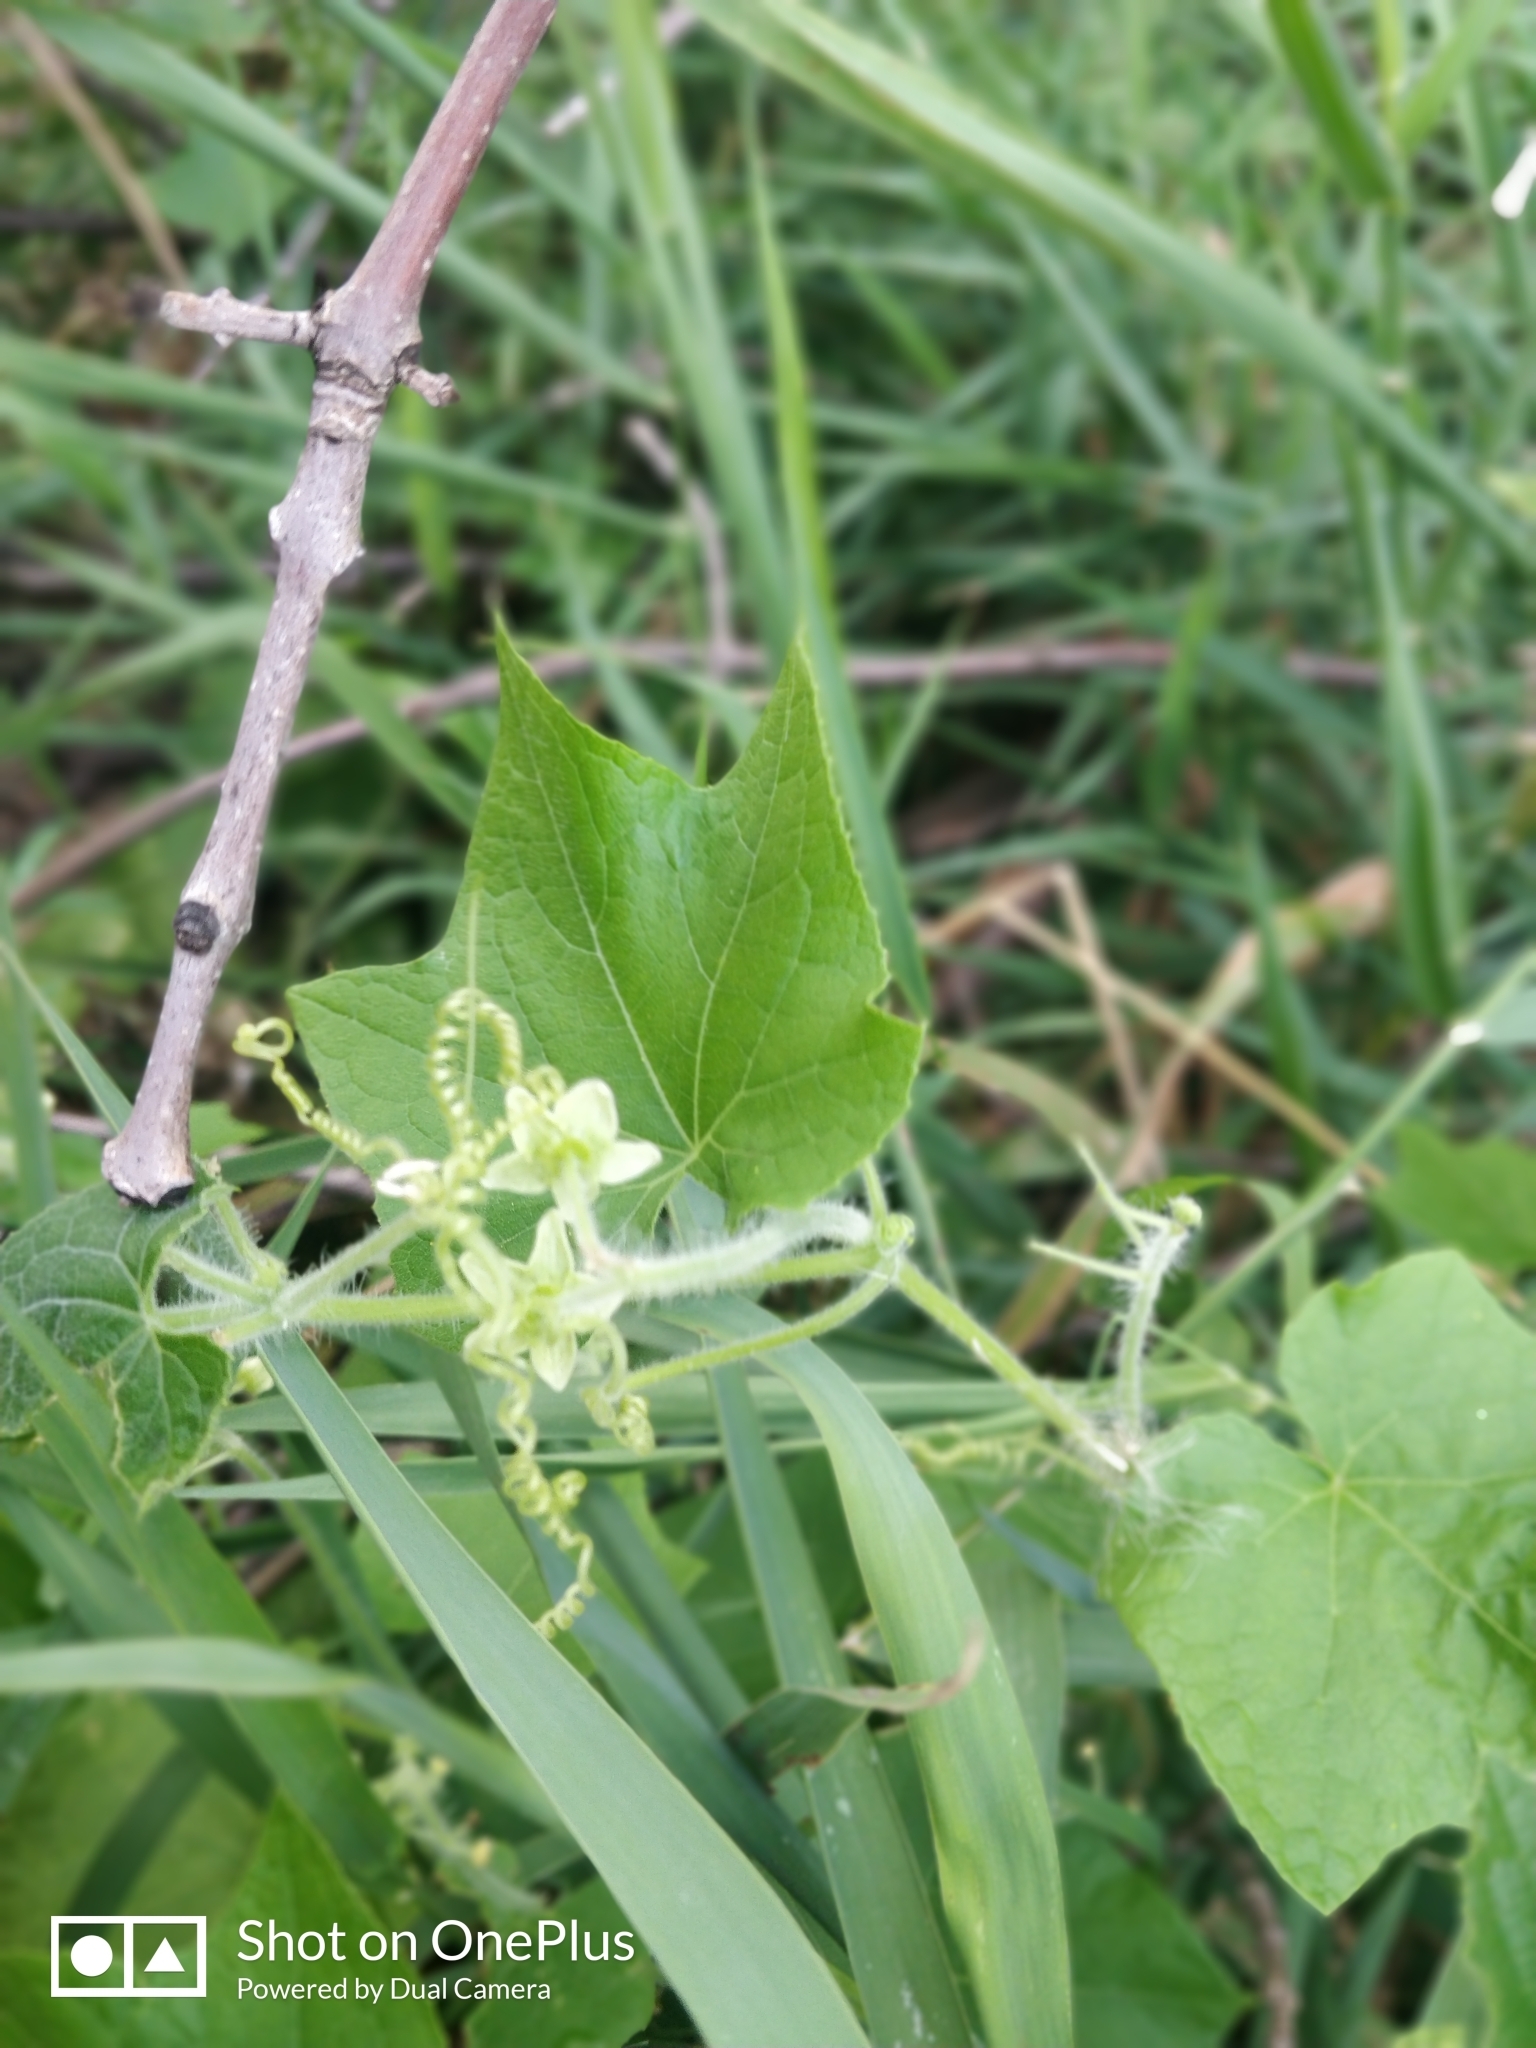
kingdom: Plantae
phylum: Tracheophyta
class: Magnoliopsida
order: Cucurbitales
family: Cucurbitaceae
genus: Sicyos
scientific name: Sicyos angulatus
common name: Angled burr cucumber
